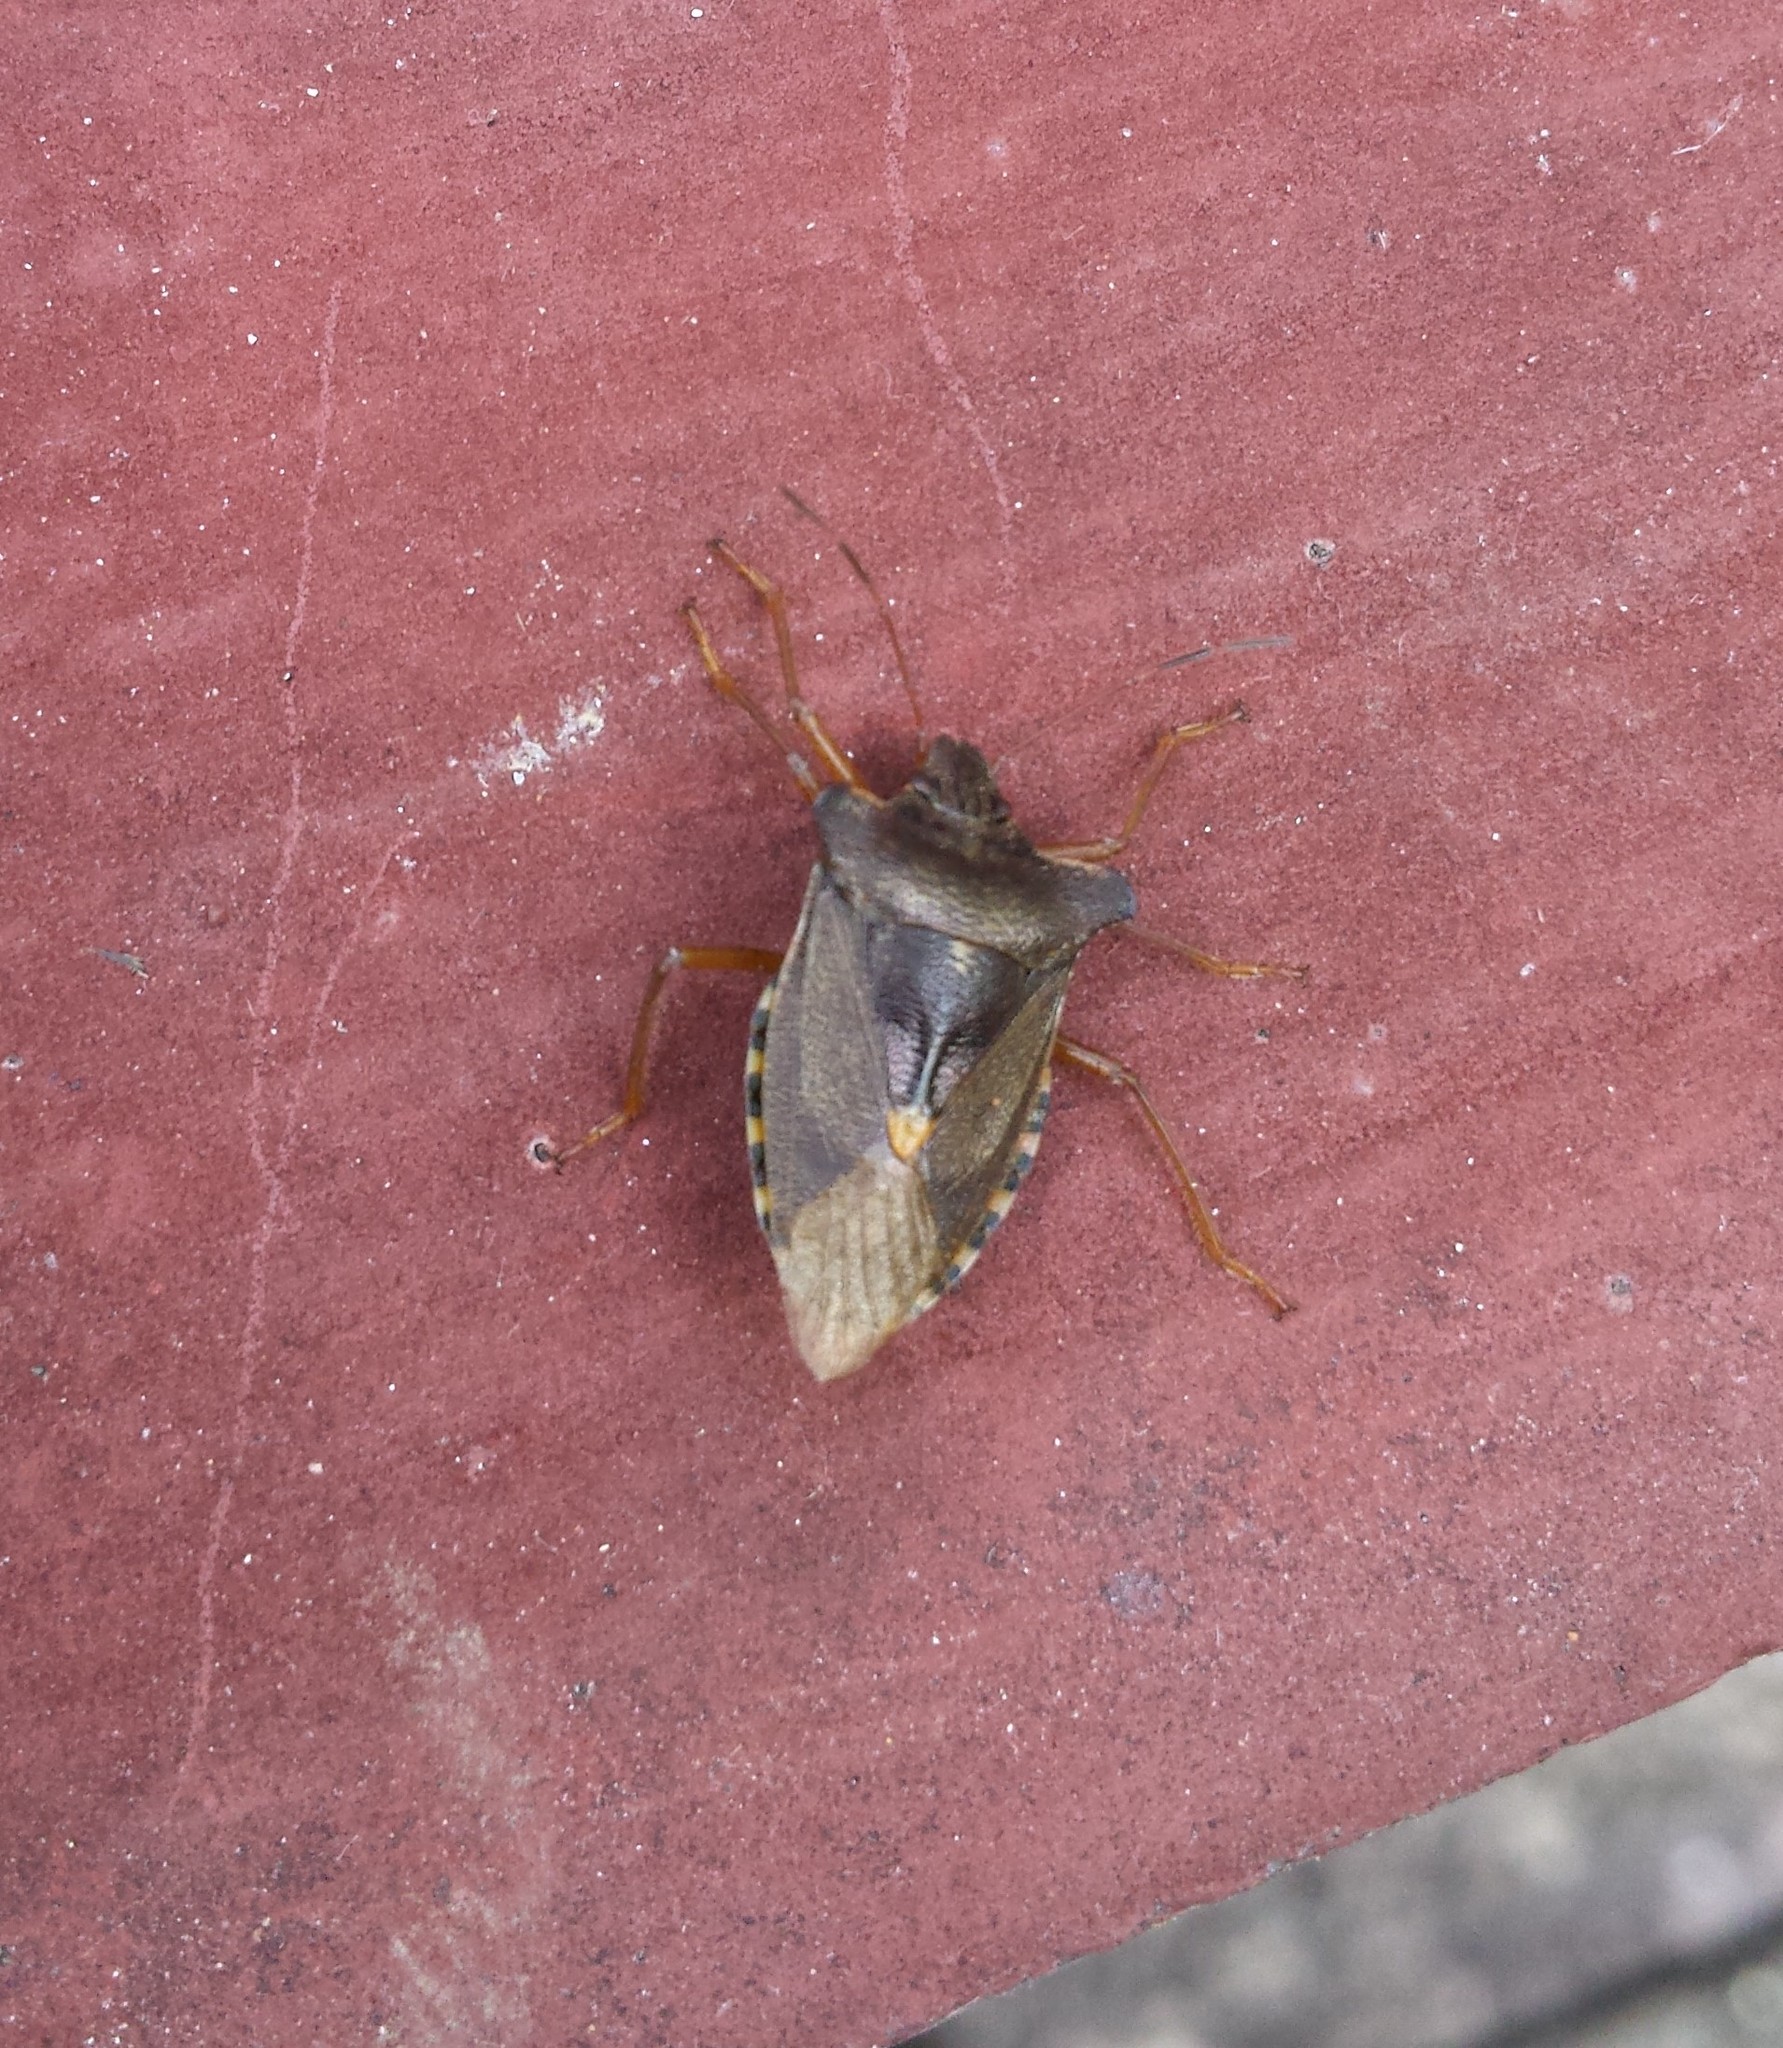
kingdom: Animalia
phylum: Arthropoda
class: Insecta
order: Hemiptera
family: Pentatomidae
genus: Pentatoma
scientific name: Pentatoma rufipes
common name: Forest bug
